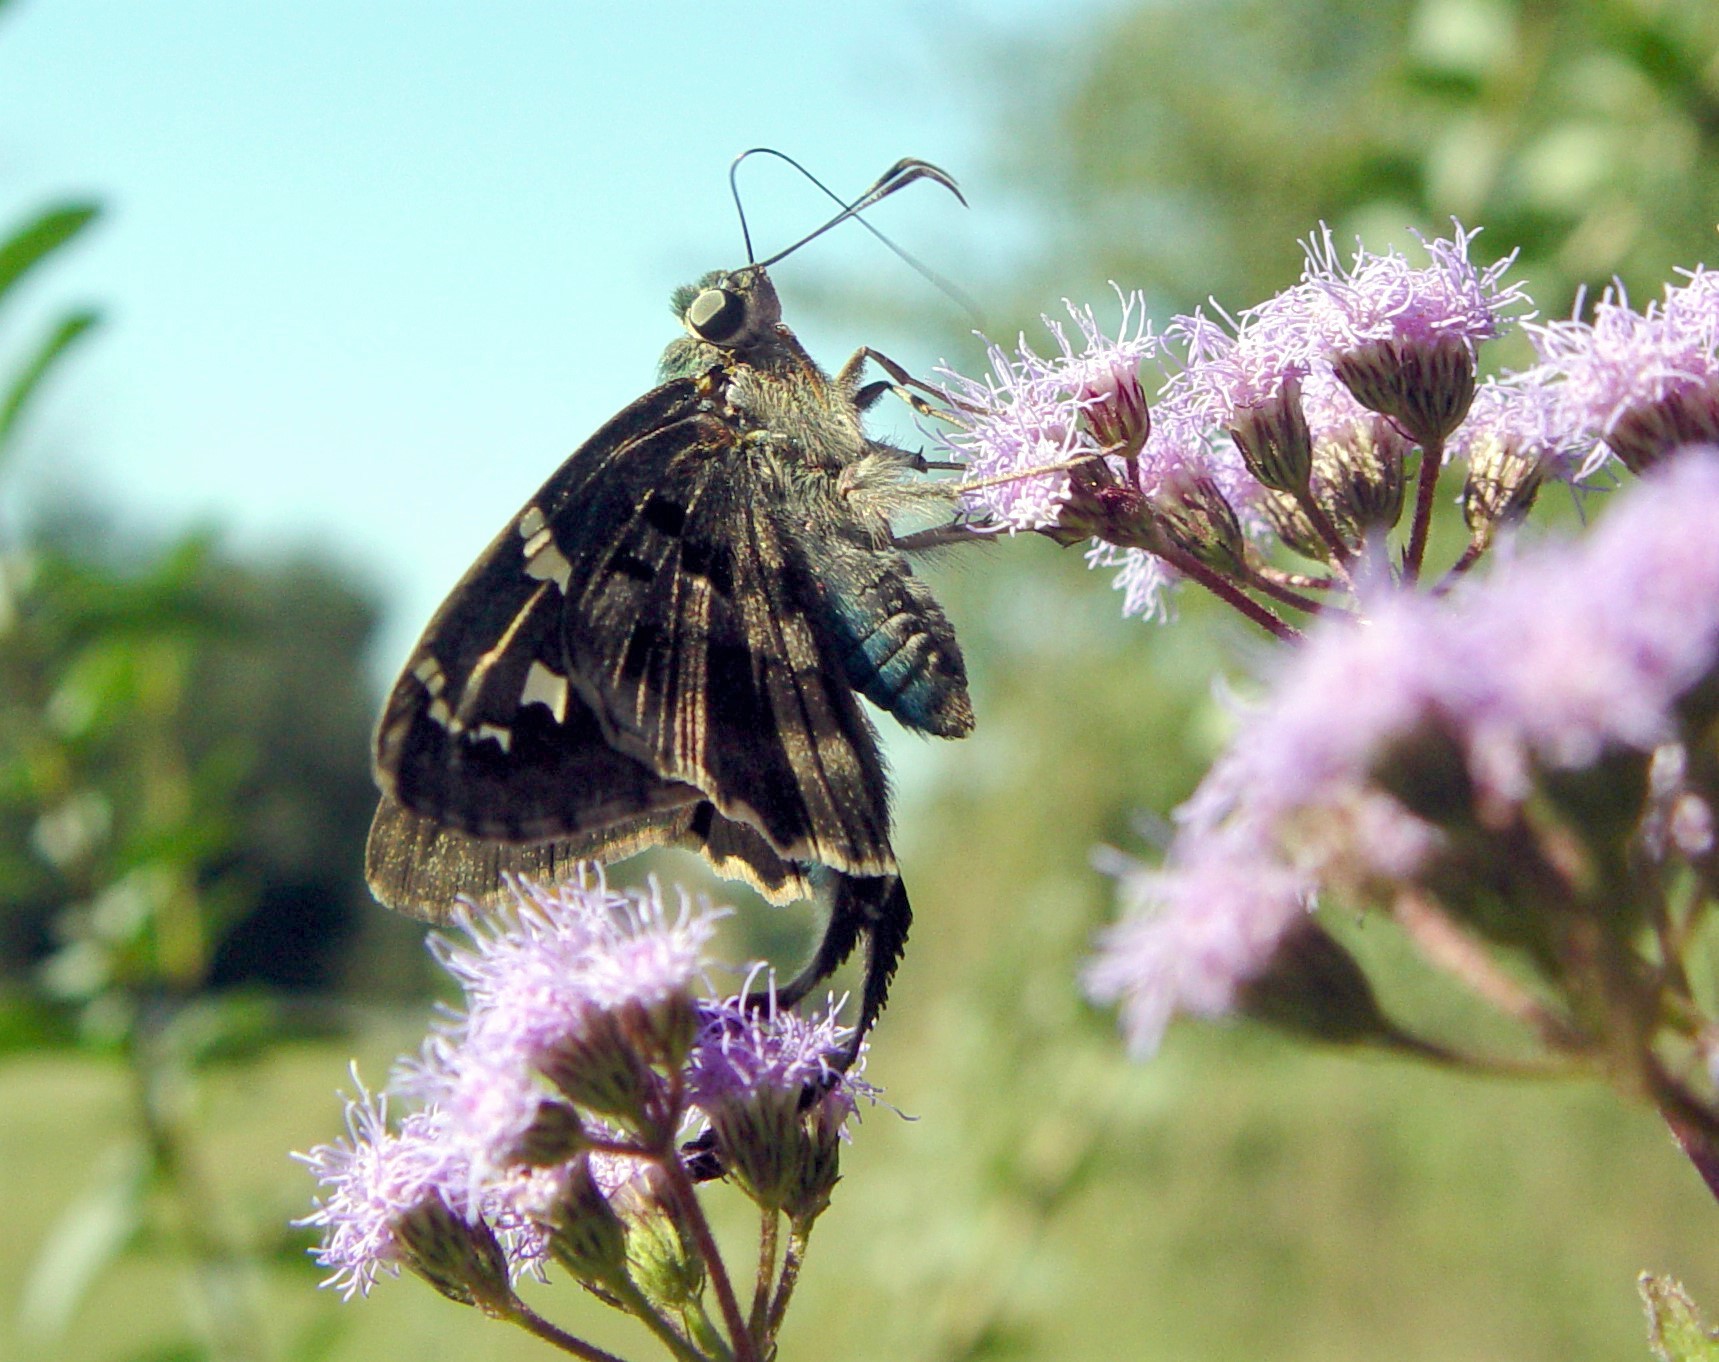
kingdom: Animalia
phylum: Arthropoda
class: Insecta
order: Lepidoptera
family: Hesperiidae
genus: Urbanus
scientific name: Urbanus proteus
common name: Long-tailed skipper
